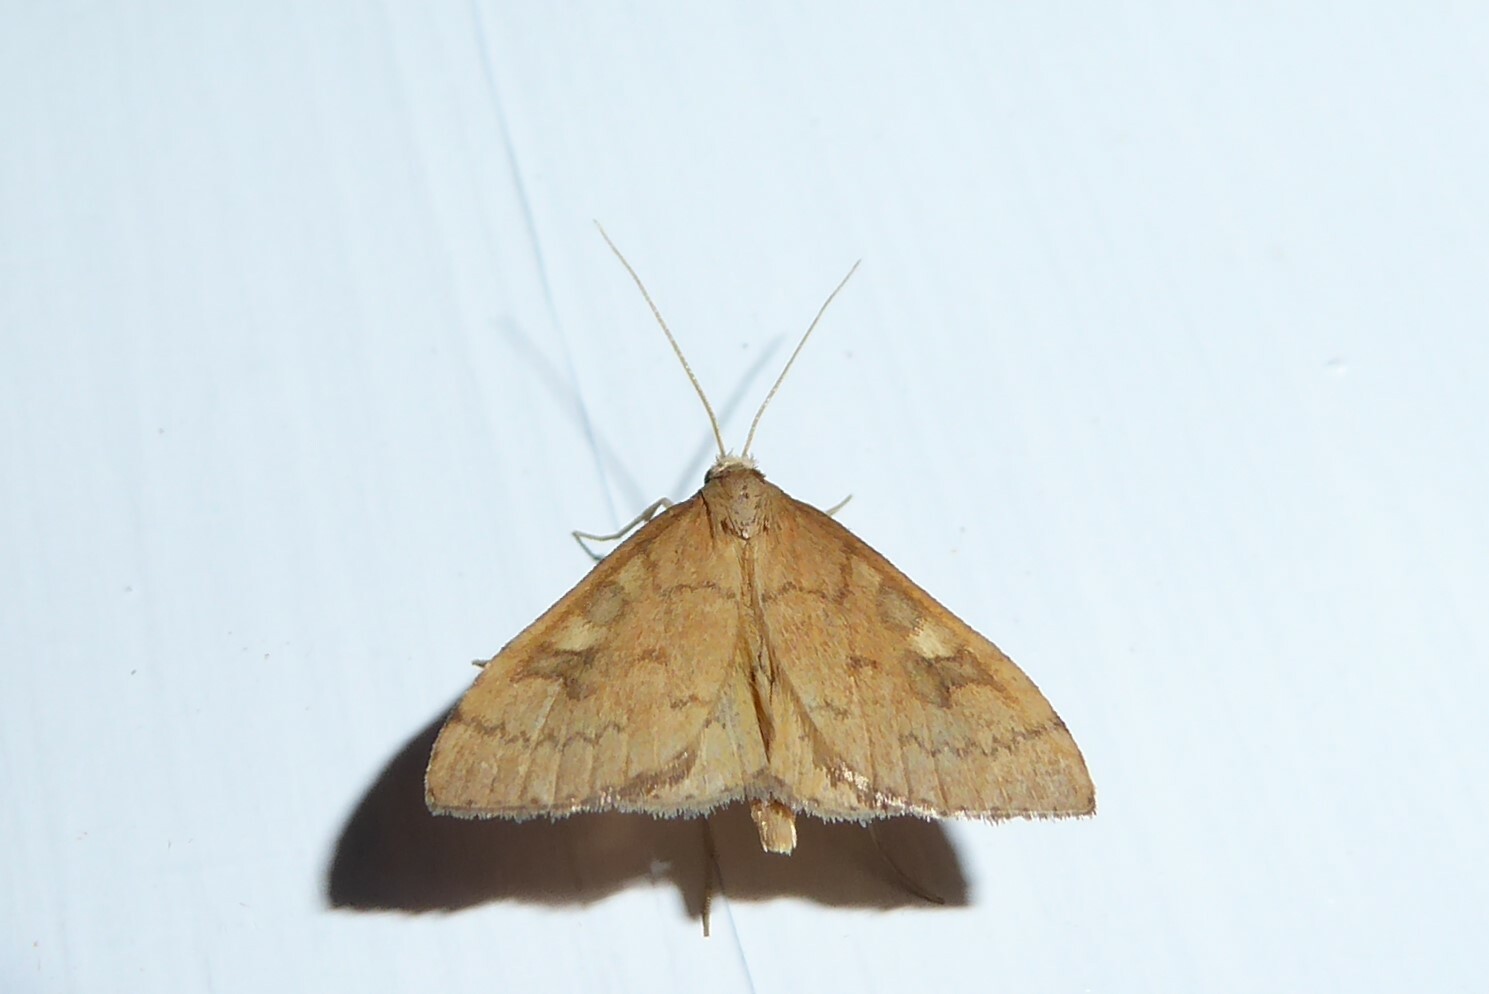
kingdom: Animalia
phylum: Arthropoda
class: Insecta
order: Lepidoptera
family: Crambidae
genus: Udea
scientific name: Udea Mnesictena flavidalis
